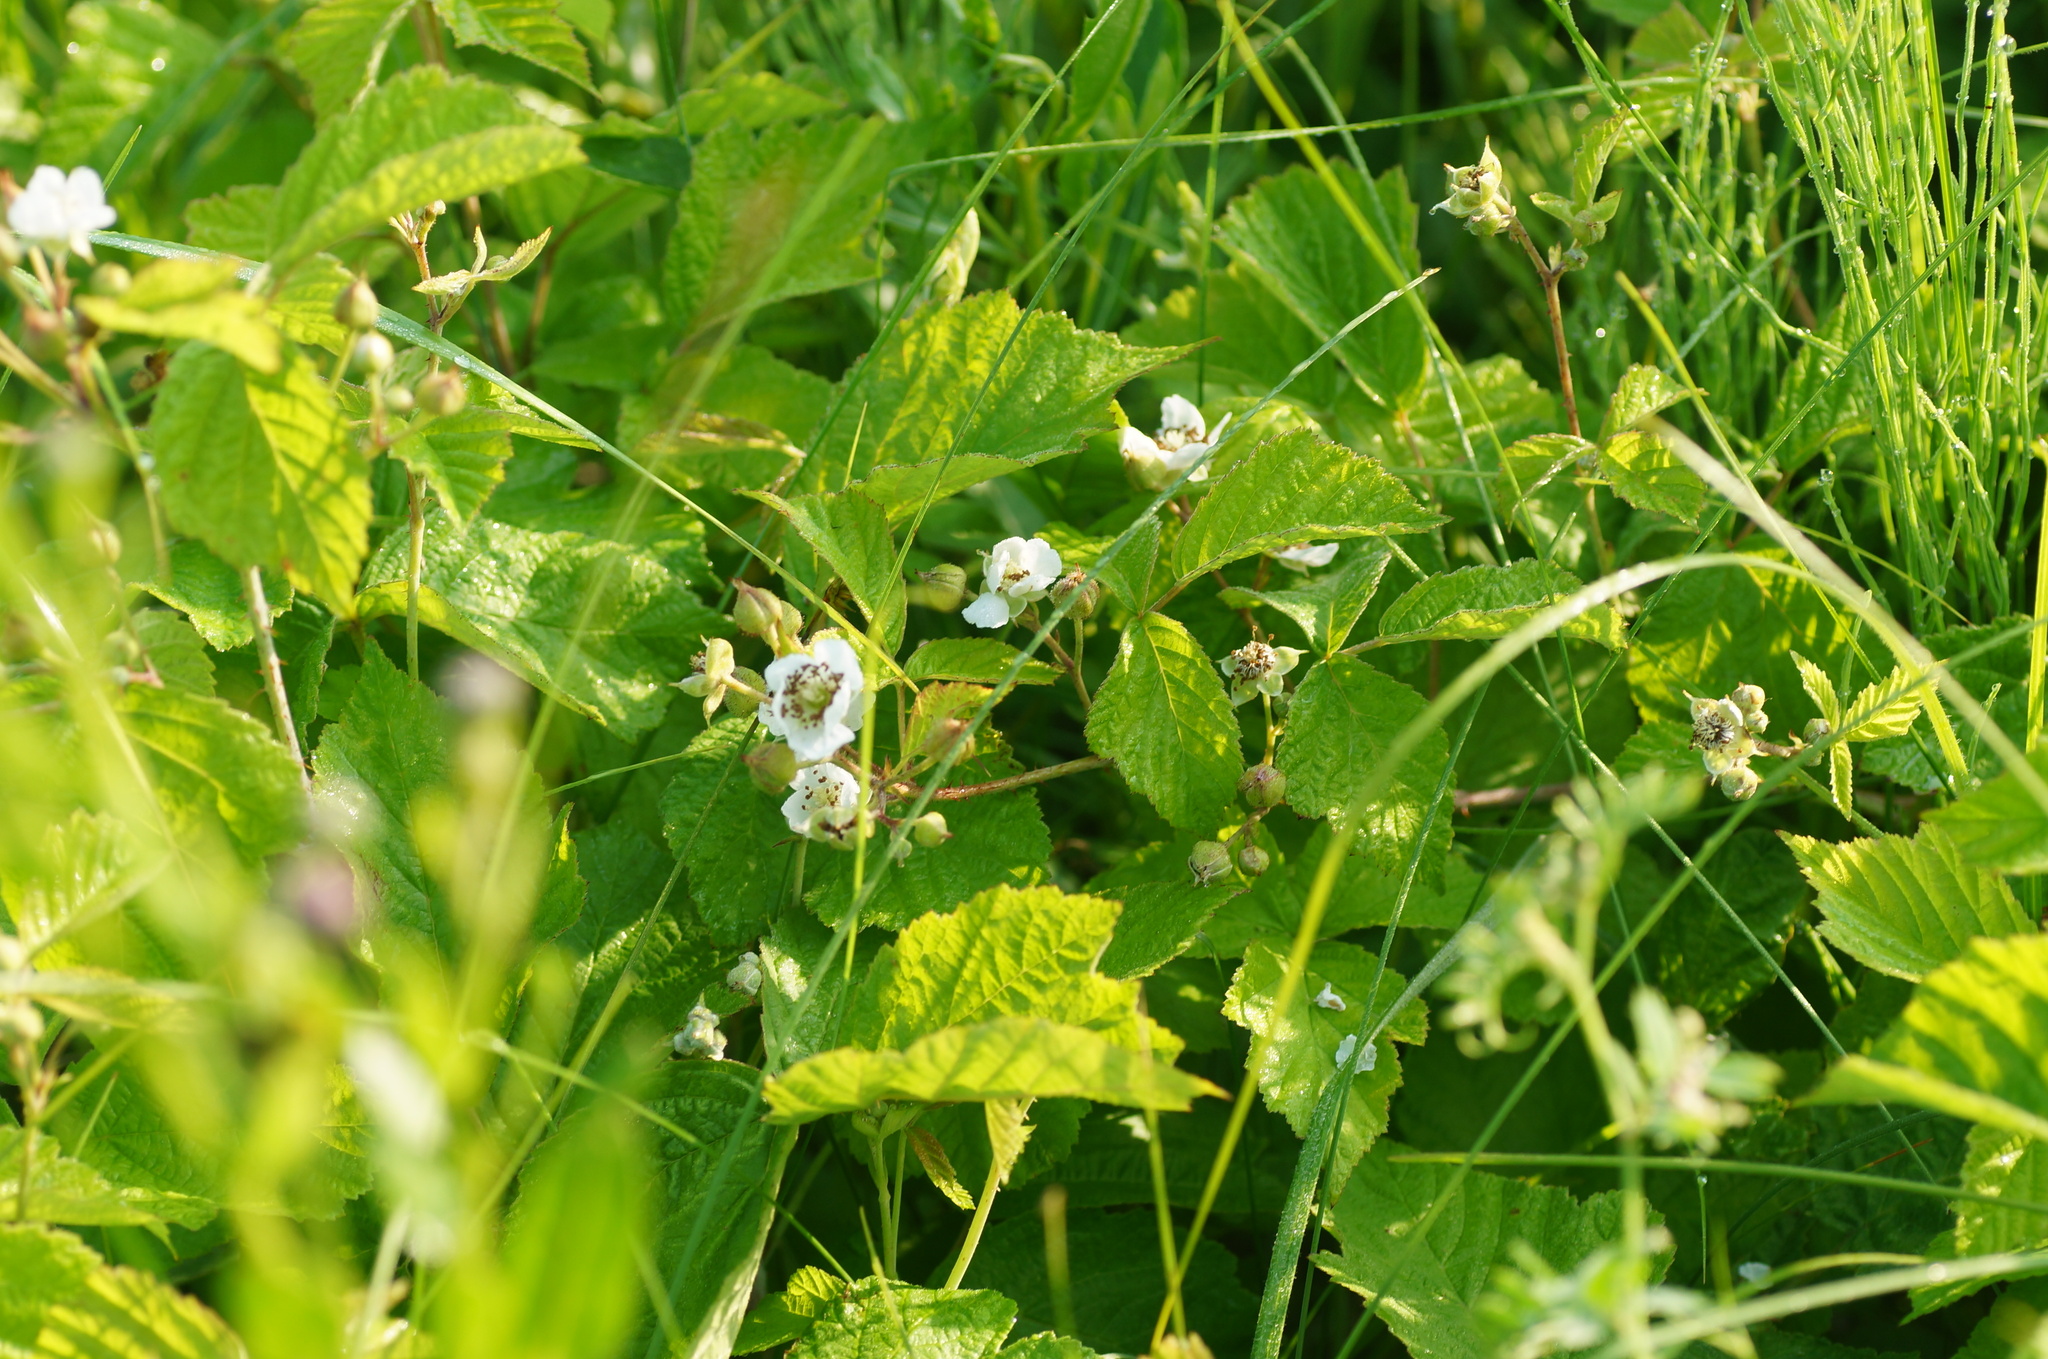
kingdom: Plantae
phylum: Tracheophyta
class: Magnoliopsida
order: Rosales
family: Rosaceae
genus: Rubus
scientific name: Rubus caesius
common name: Dewberry
